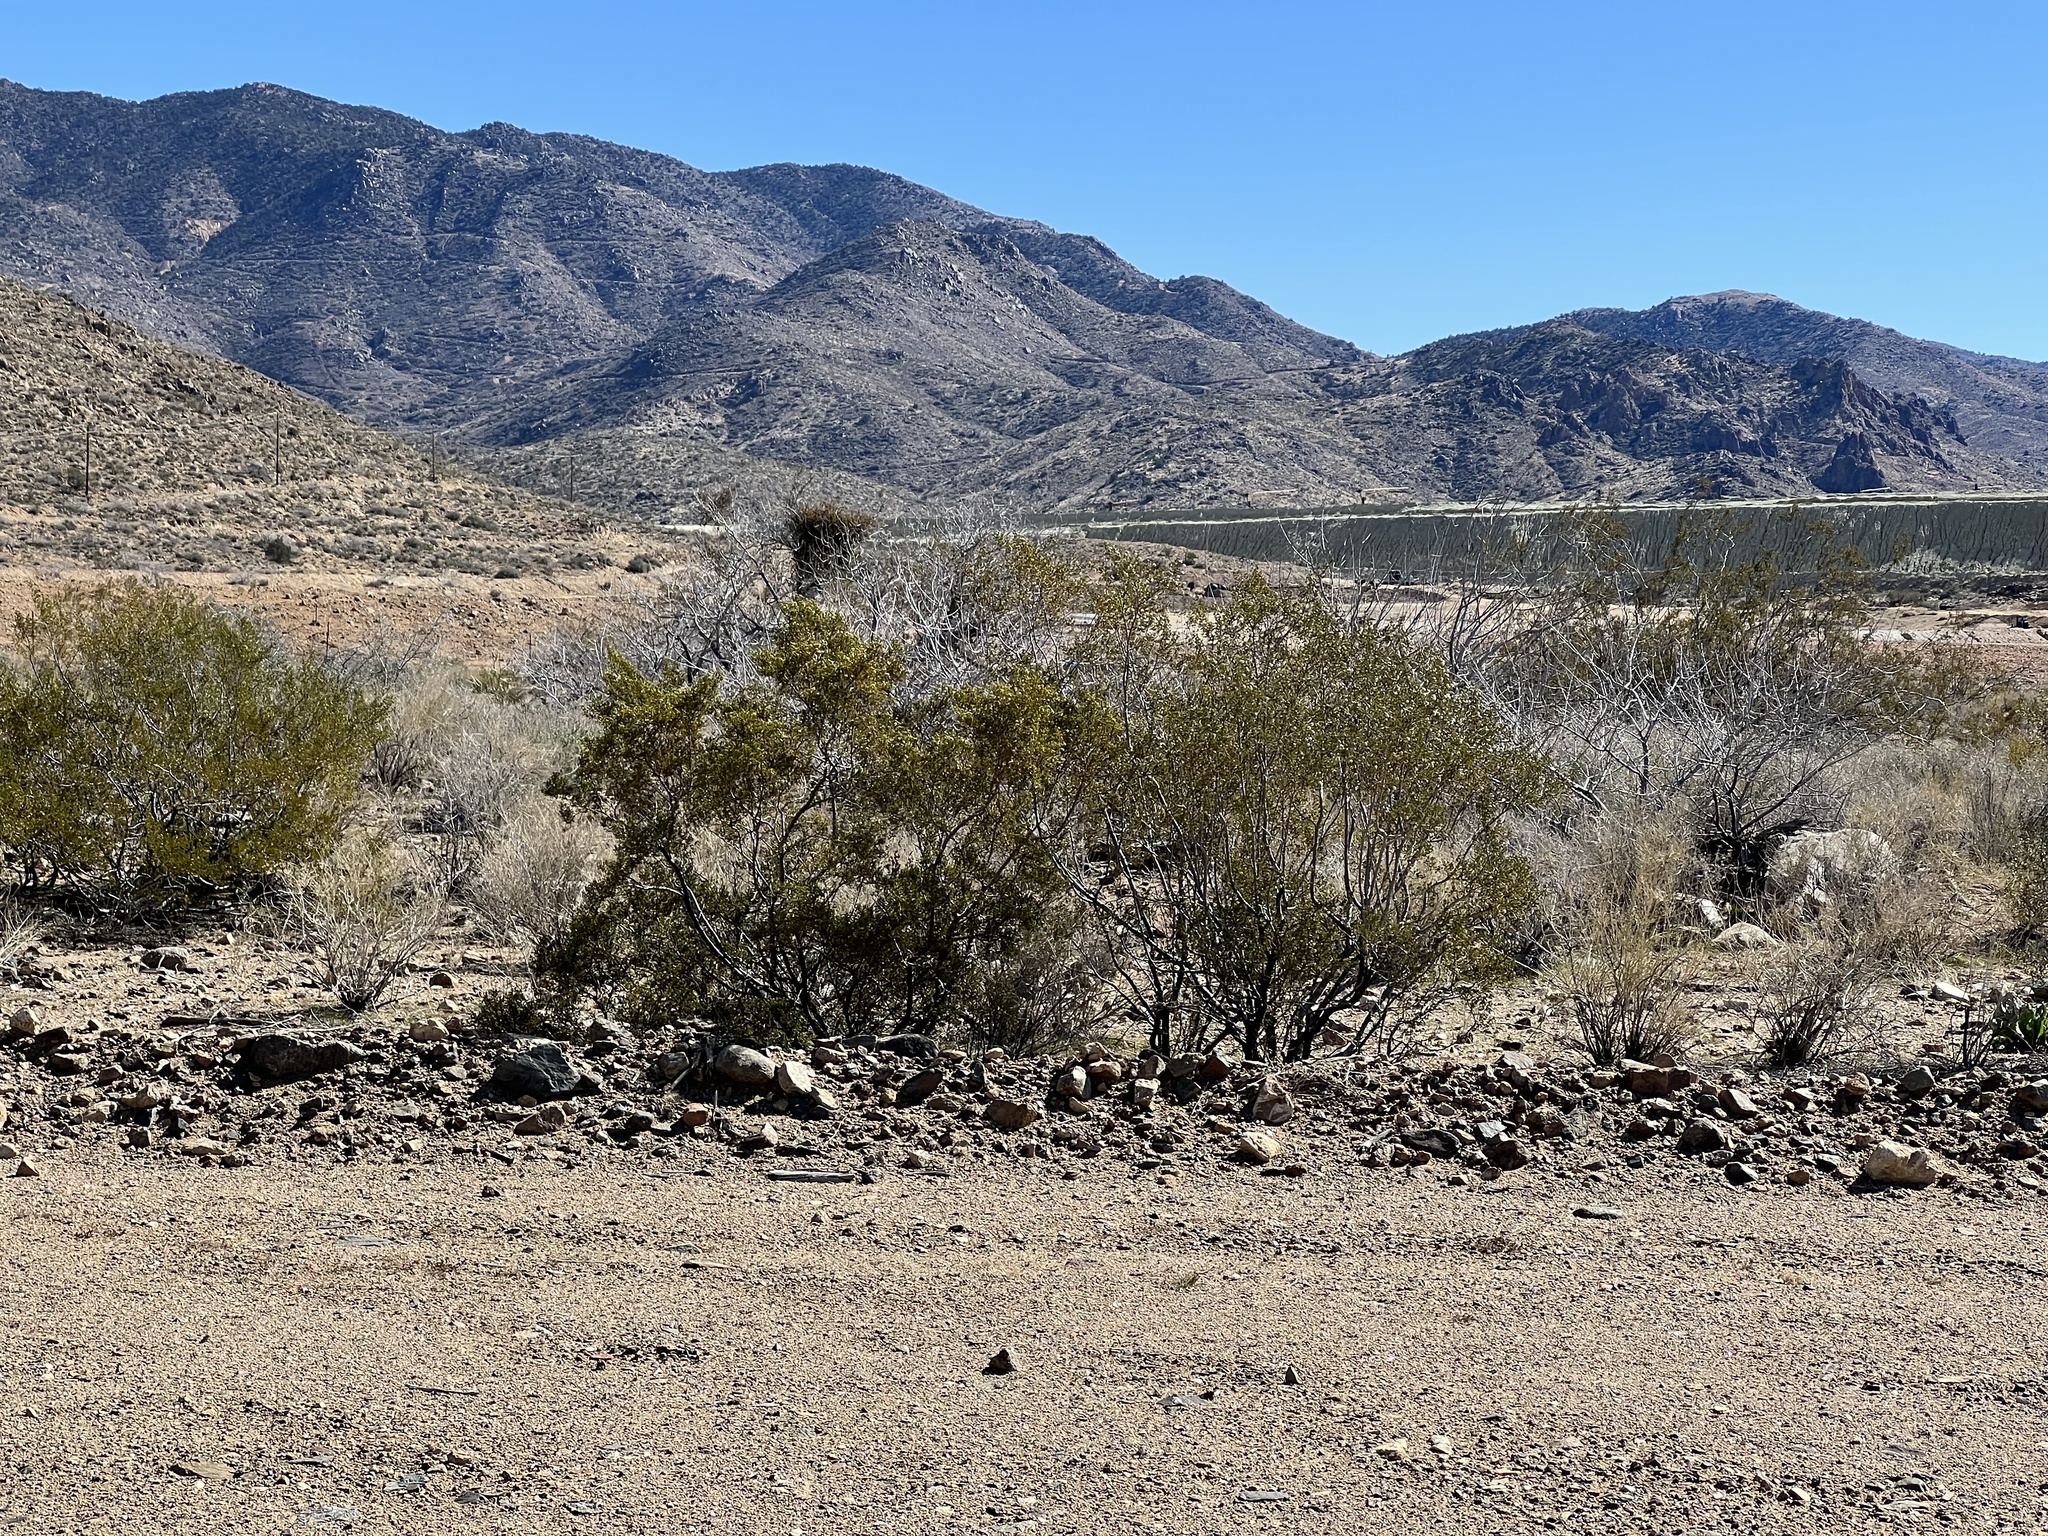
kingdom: Plantae
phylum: Tracheophyta
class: Magnoliopsida
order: Zygophyllales
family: Zygophyllaceae
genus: Larrea
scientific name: Larrea tridentata
